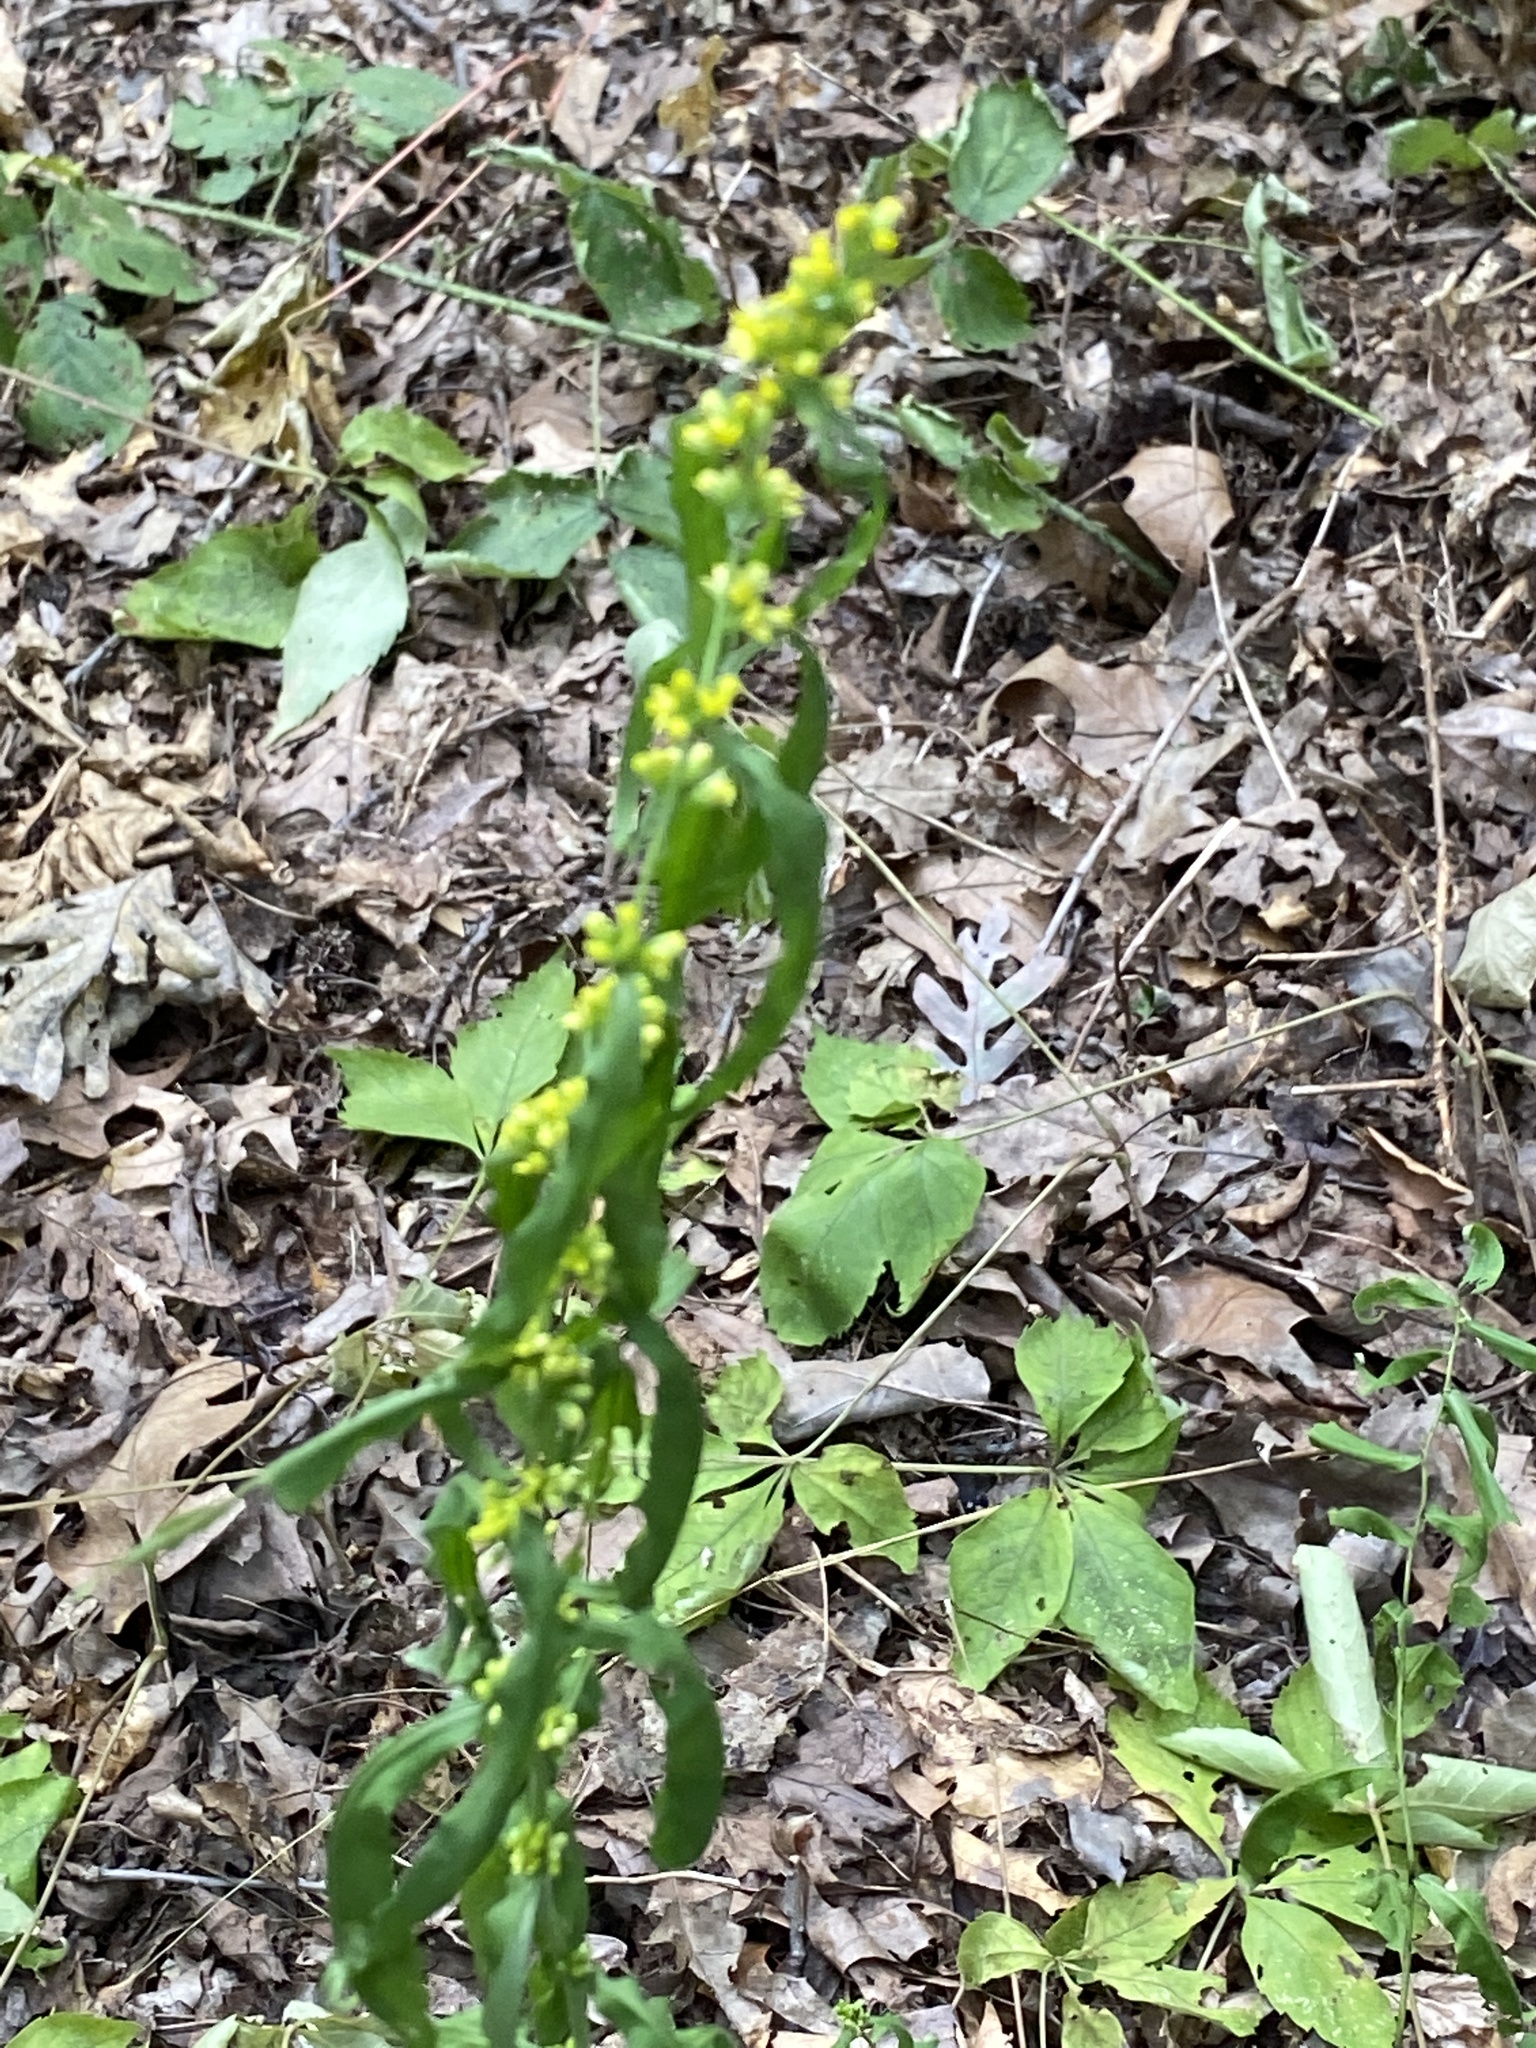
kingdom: Plantae
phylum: Tracheophyta
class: Magnoliopsida
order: Asterales
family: Asteraceae
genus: Solidago
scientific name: Solidago caesia
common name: Woodland goldenrod
